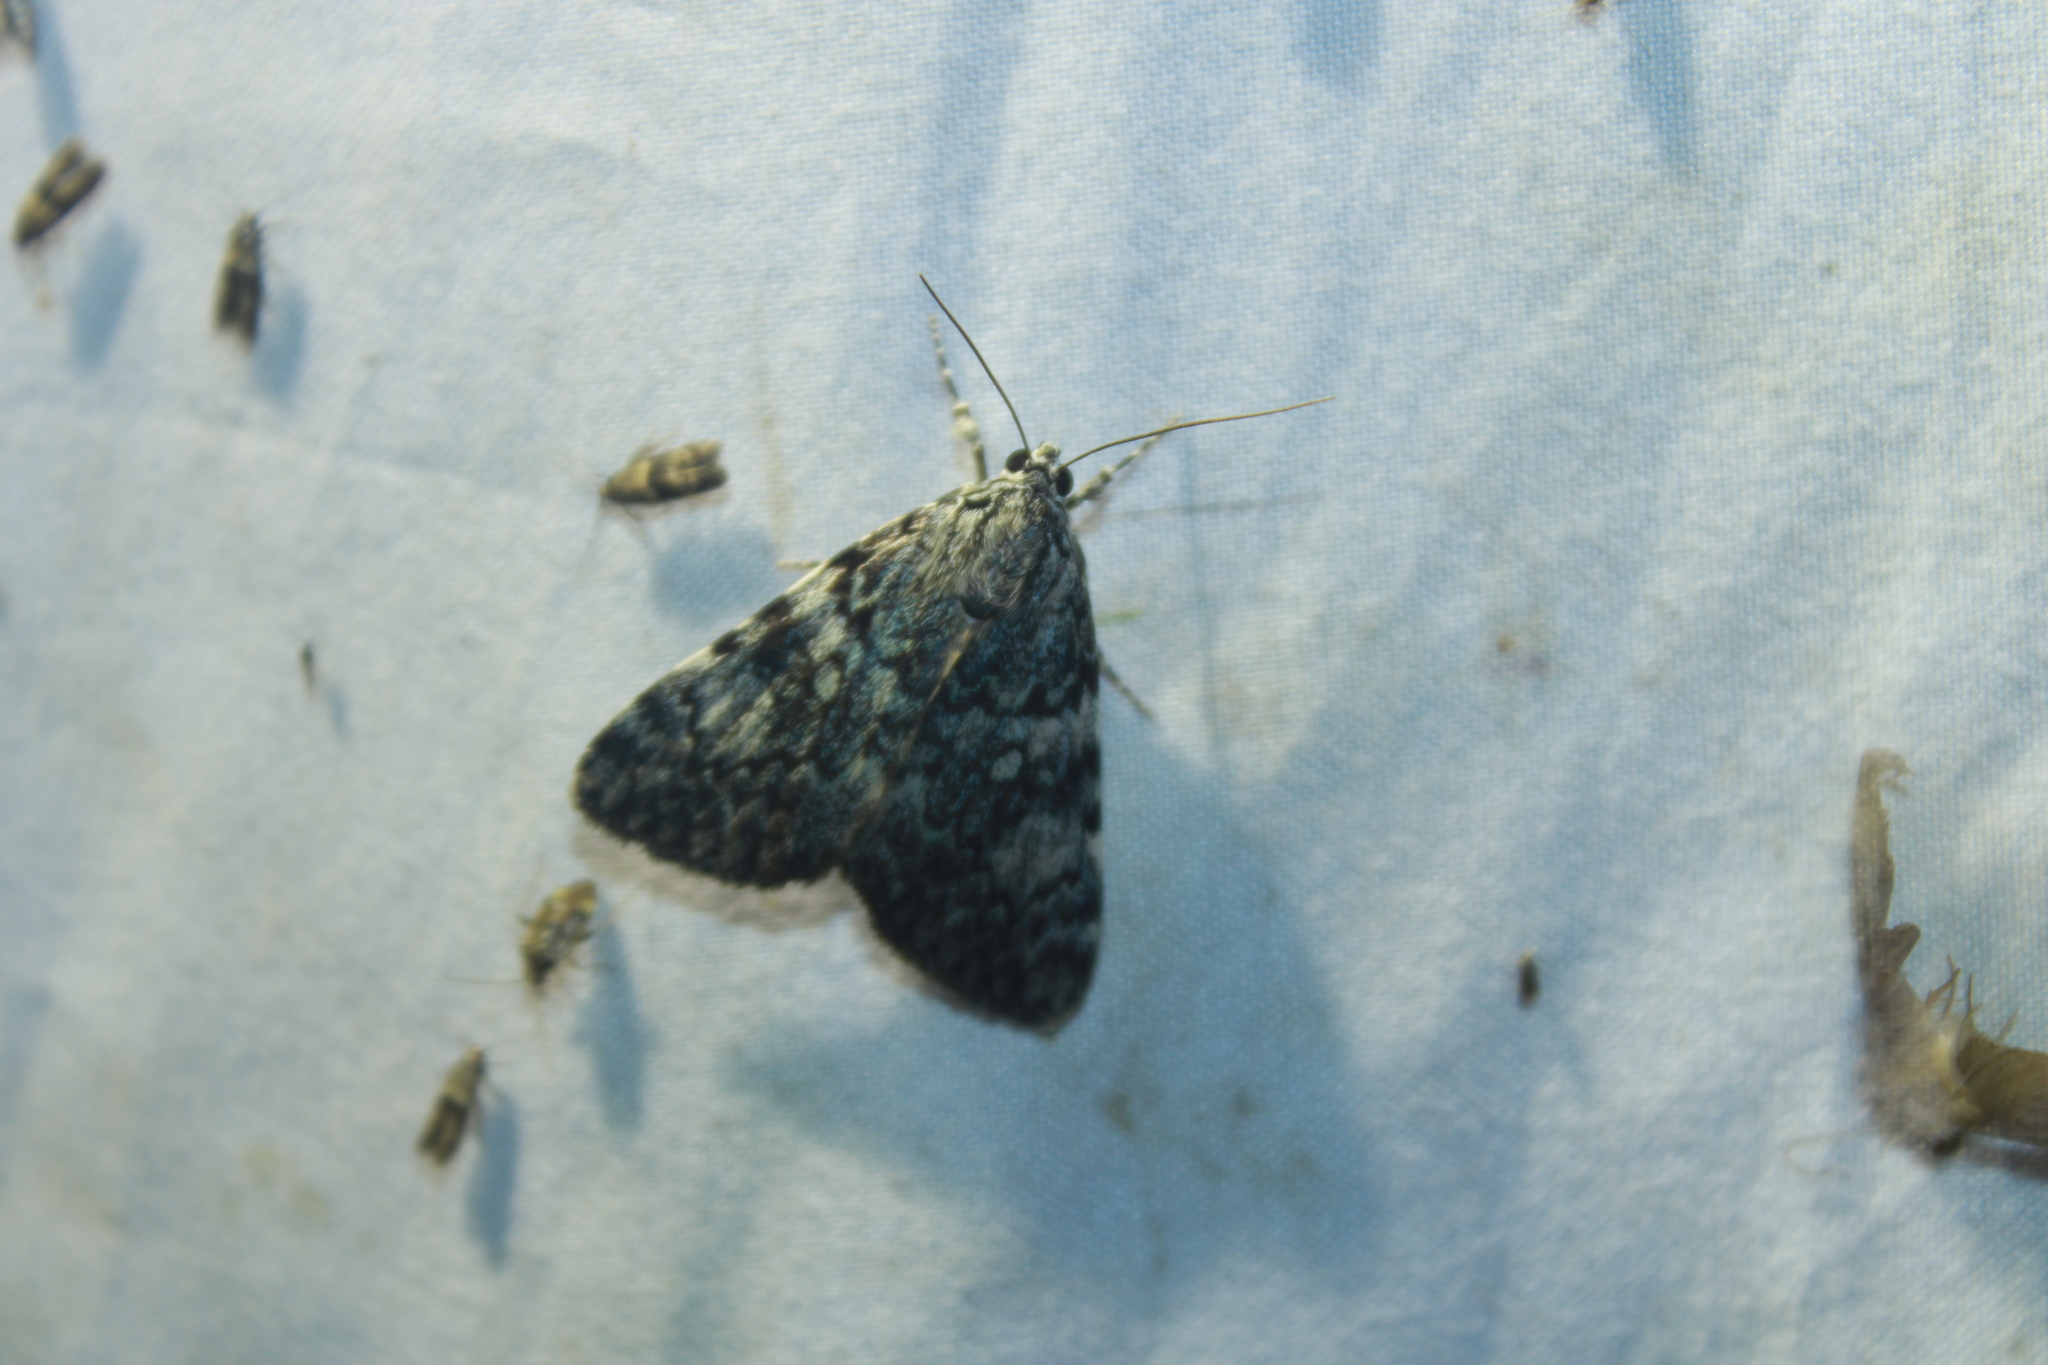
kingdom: Animalia
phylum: Arthropoda
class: Insecta
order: Lepidoptera
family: Erebidae
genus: Catocala
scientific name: Catocala lineella
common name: Little lined underwing
